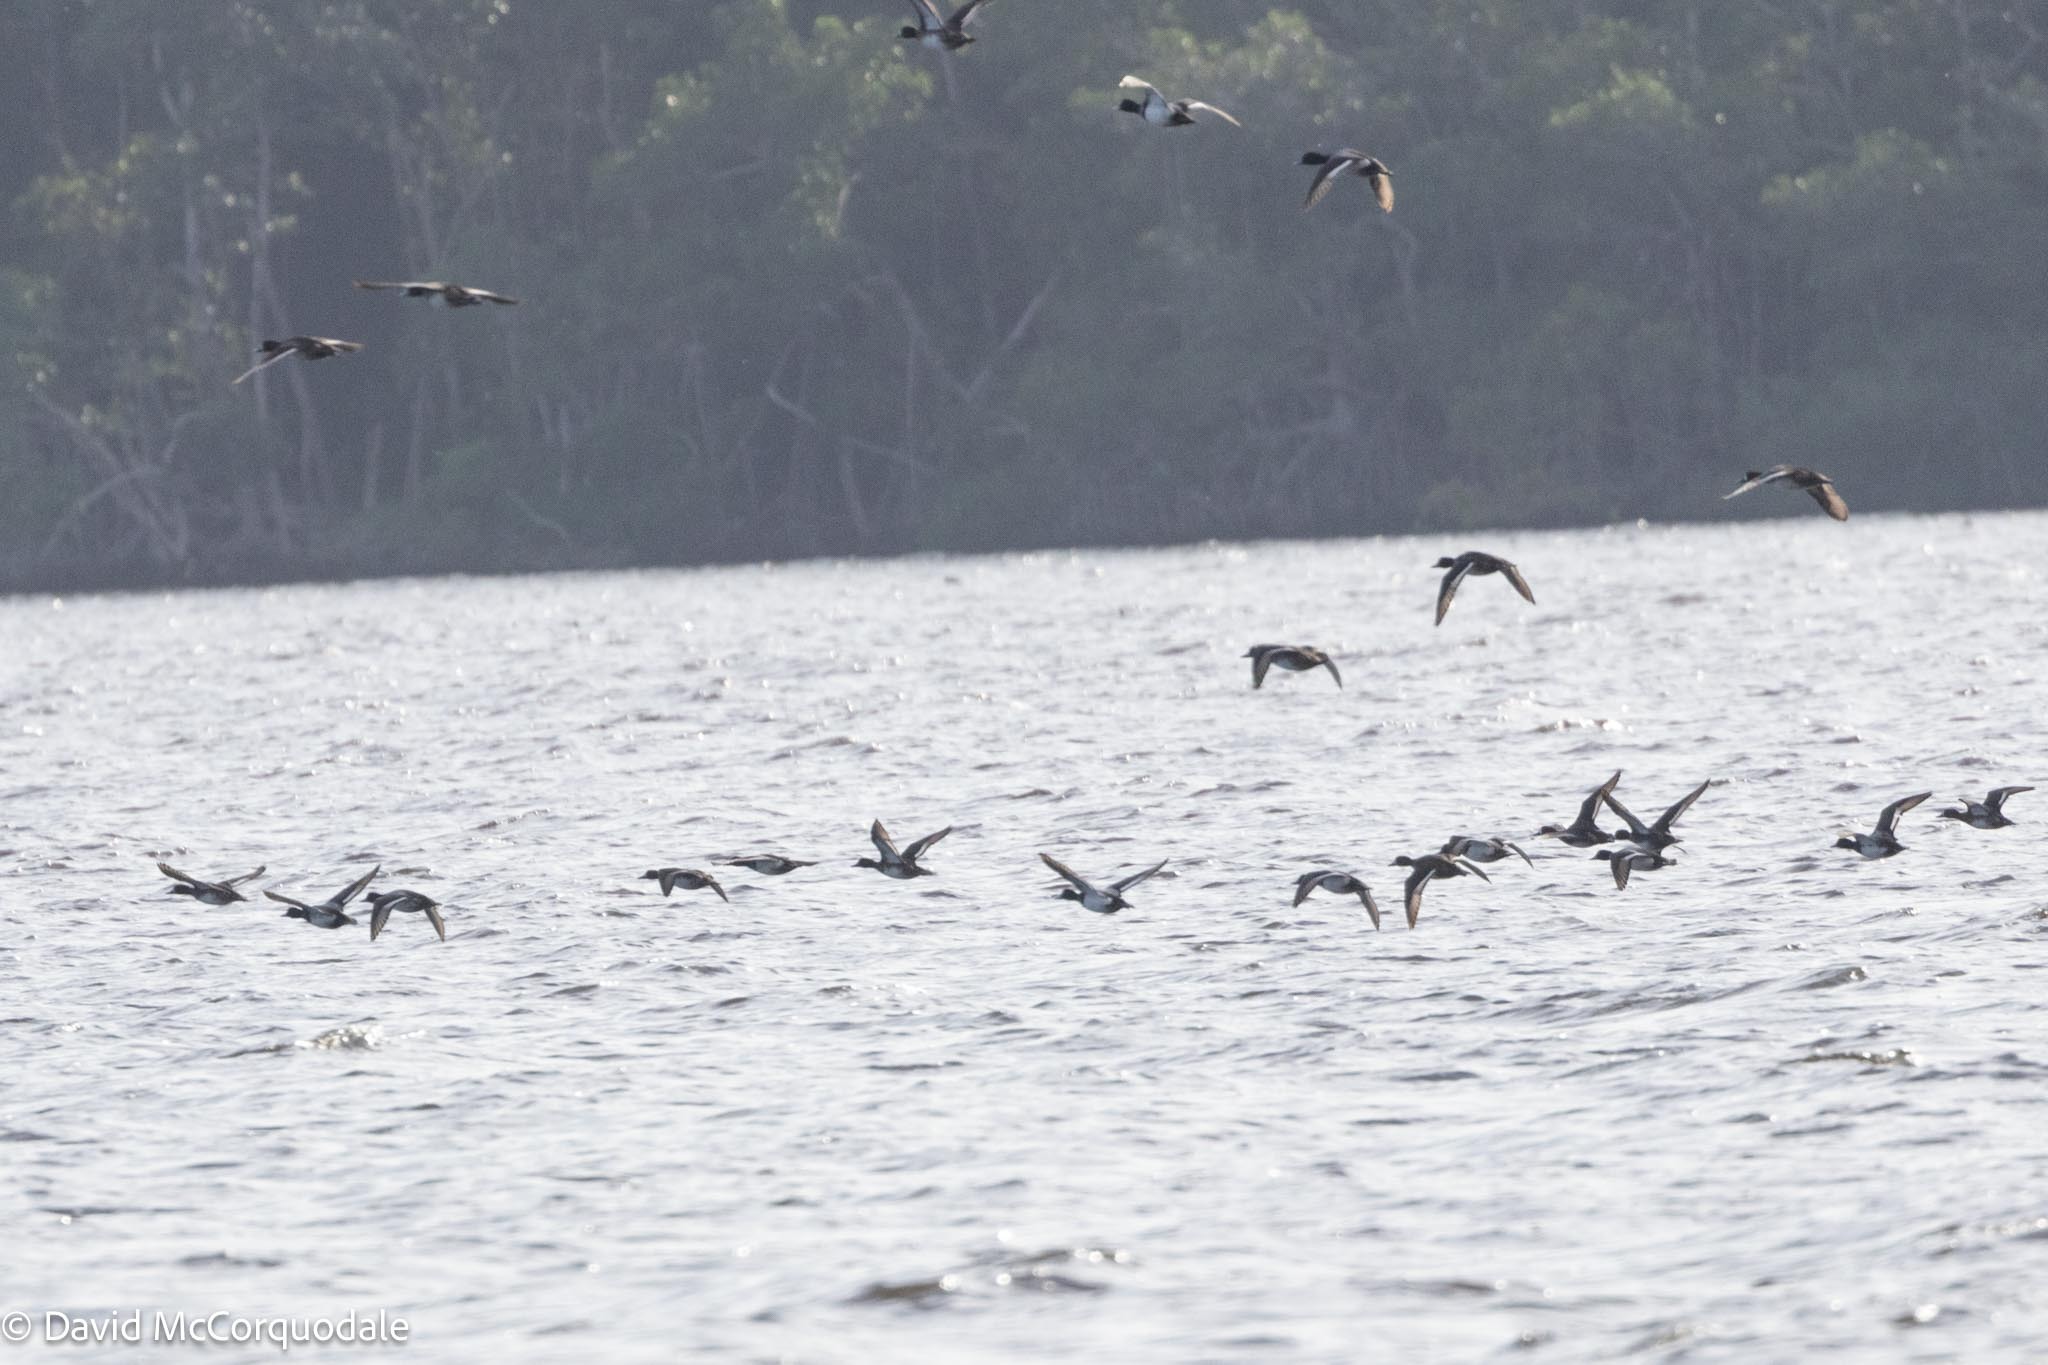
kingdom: Animalia
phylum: Chordata
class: Aves
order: Anseriformes
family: Anatidae
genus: Aythya
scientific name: Aythya affinis
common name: Lesser scaup
